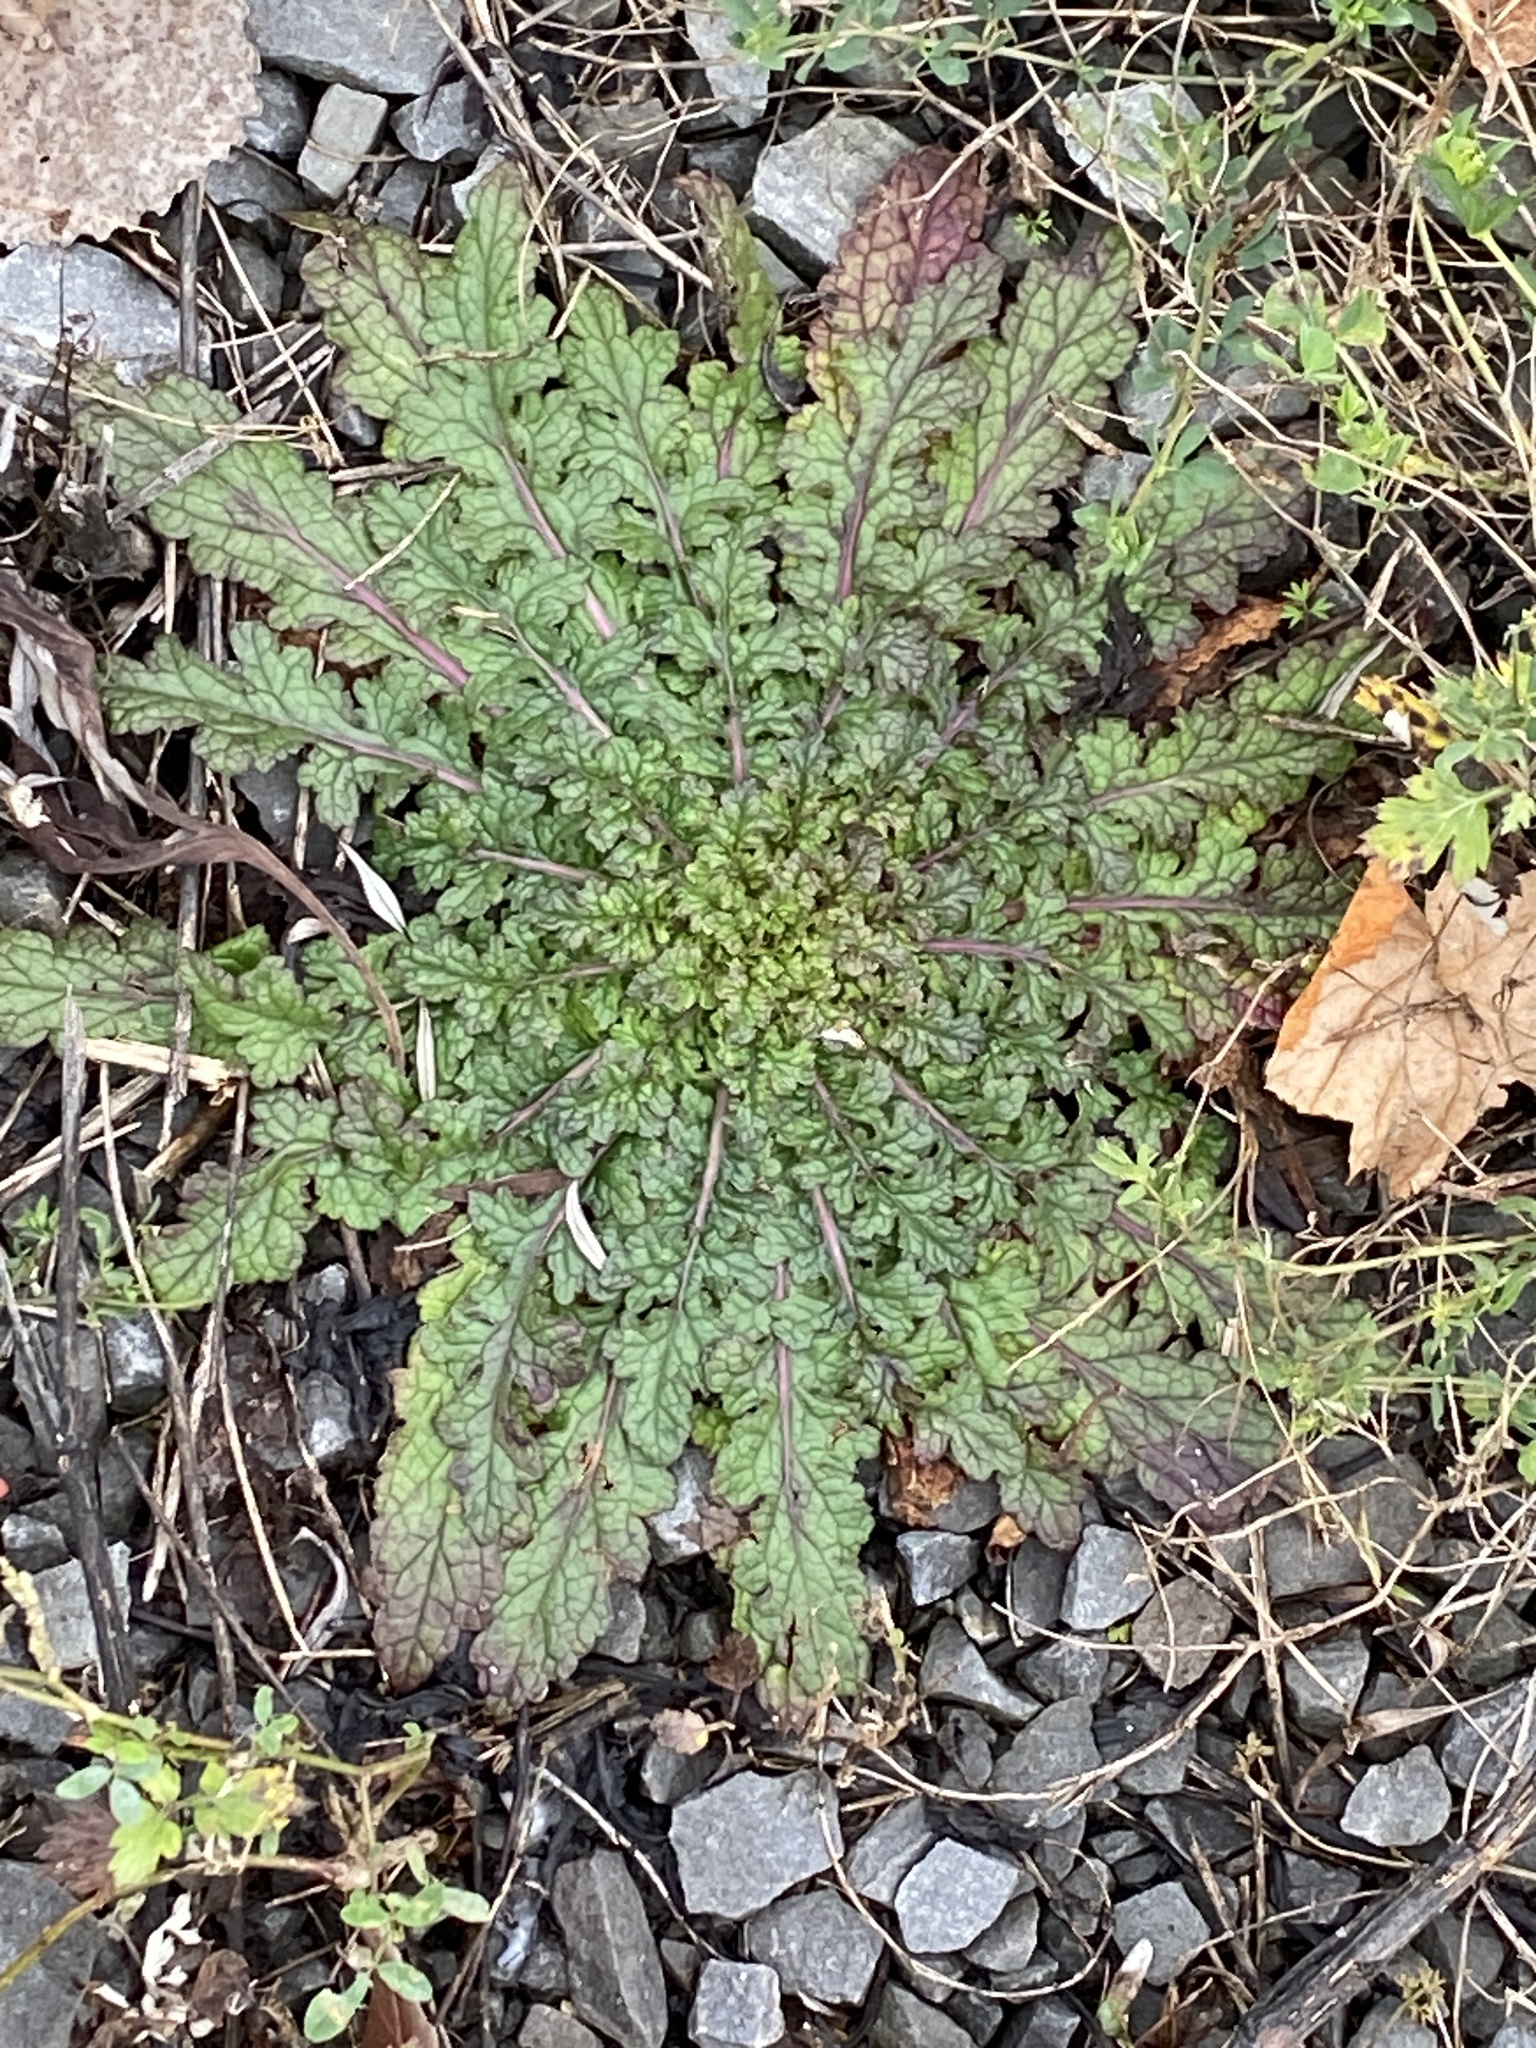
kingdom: Plantae
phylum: Tracheophyta
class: Magnoliopsida
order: Lamiales
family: Scrophulariaceae
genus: Verbascum
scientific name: Verbascum blattaria
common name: Moth mullein
